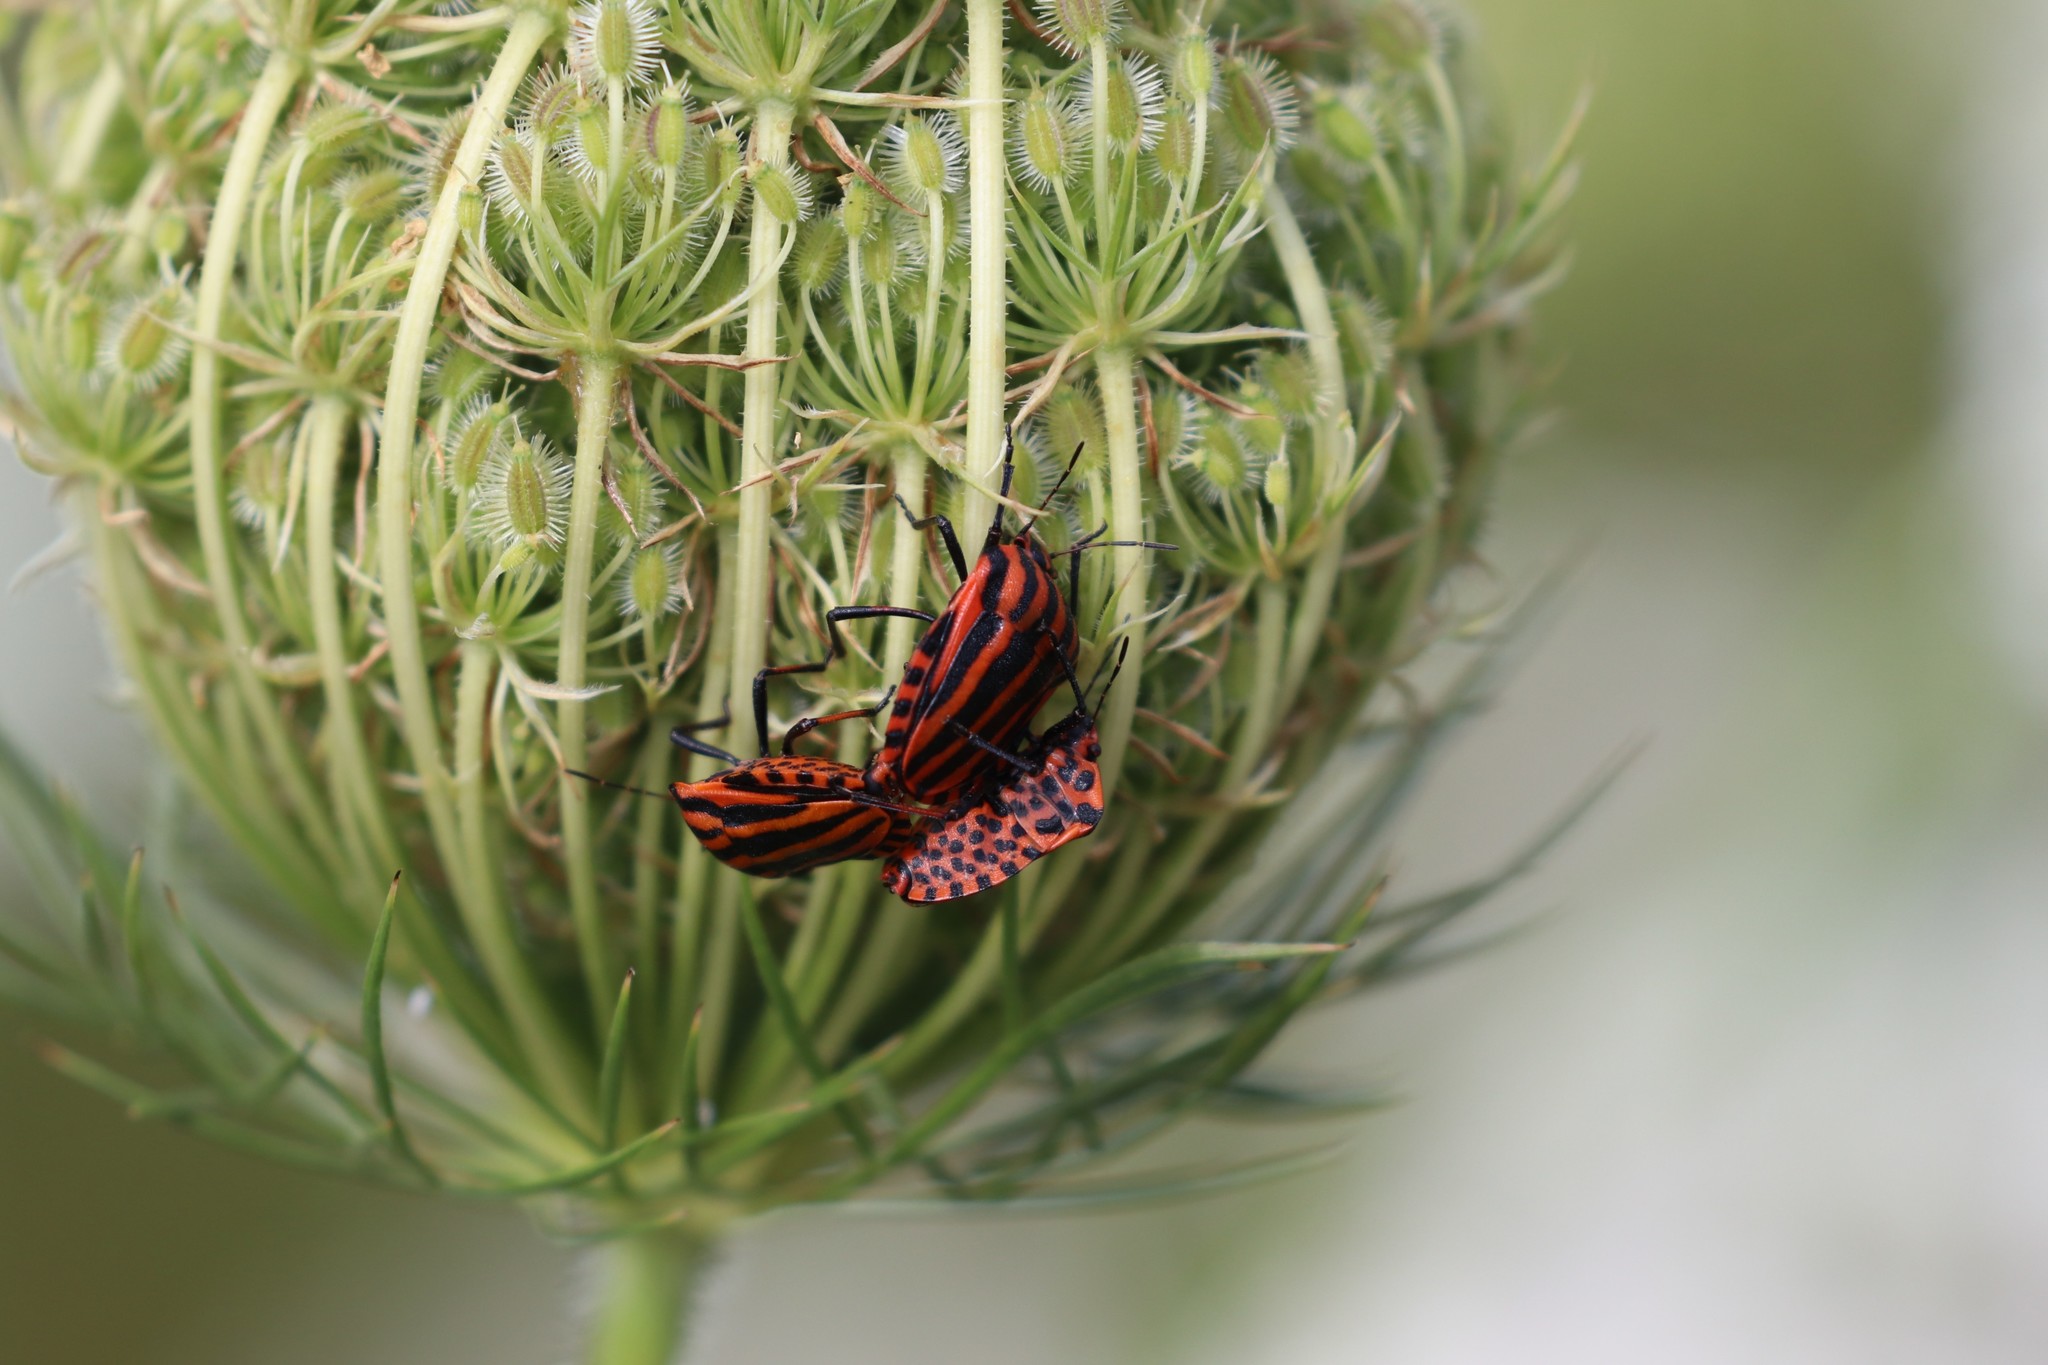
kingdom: Animalia
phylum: Arthropoda
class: Insecta
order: Hemiptera
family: Pentatomidae
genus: Graphosoma
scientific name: Graphosoma italicum
